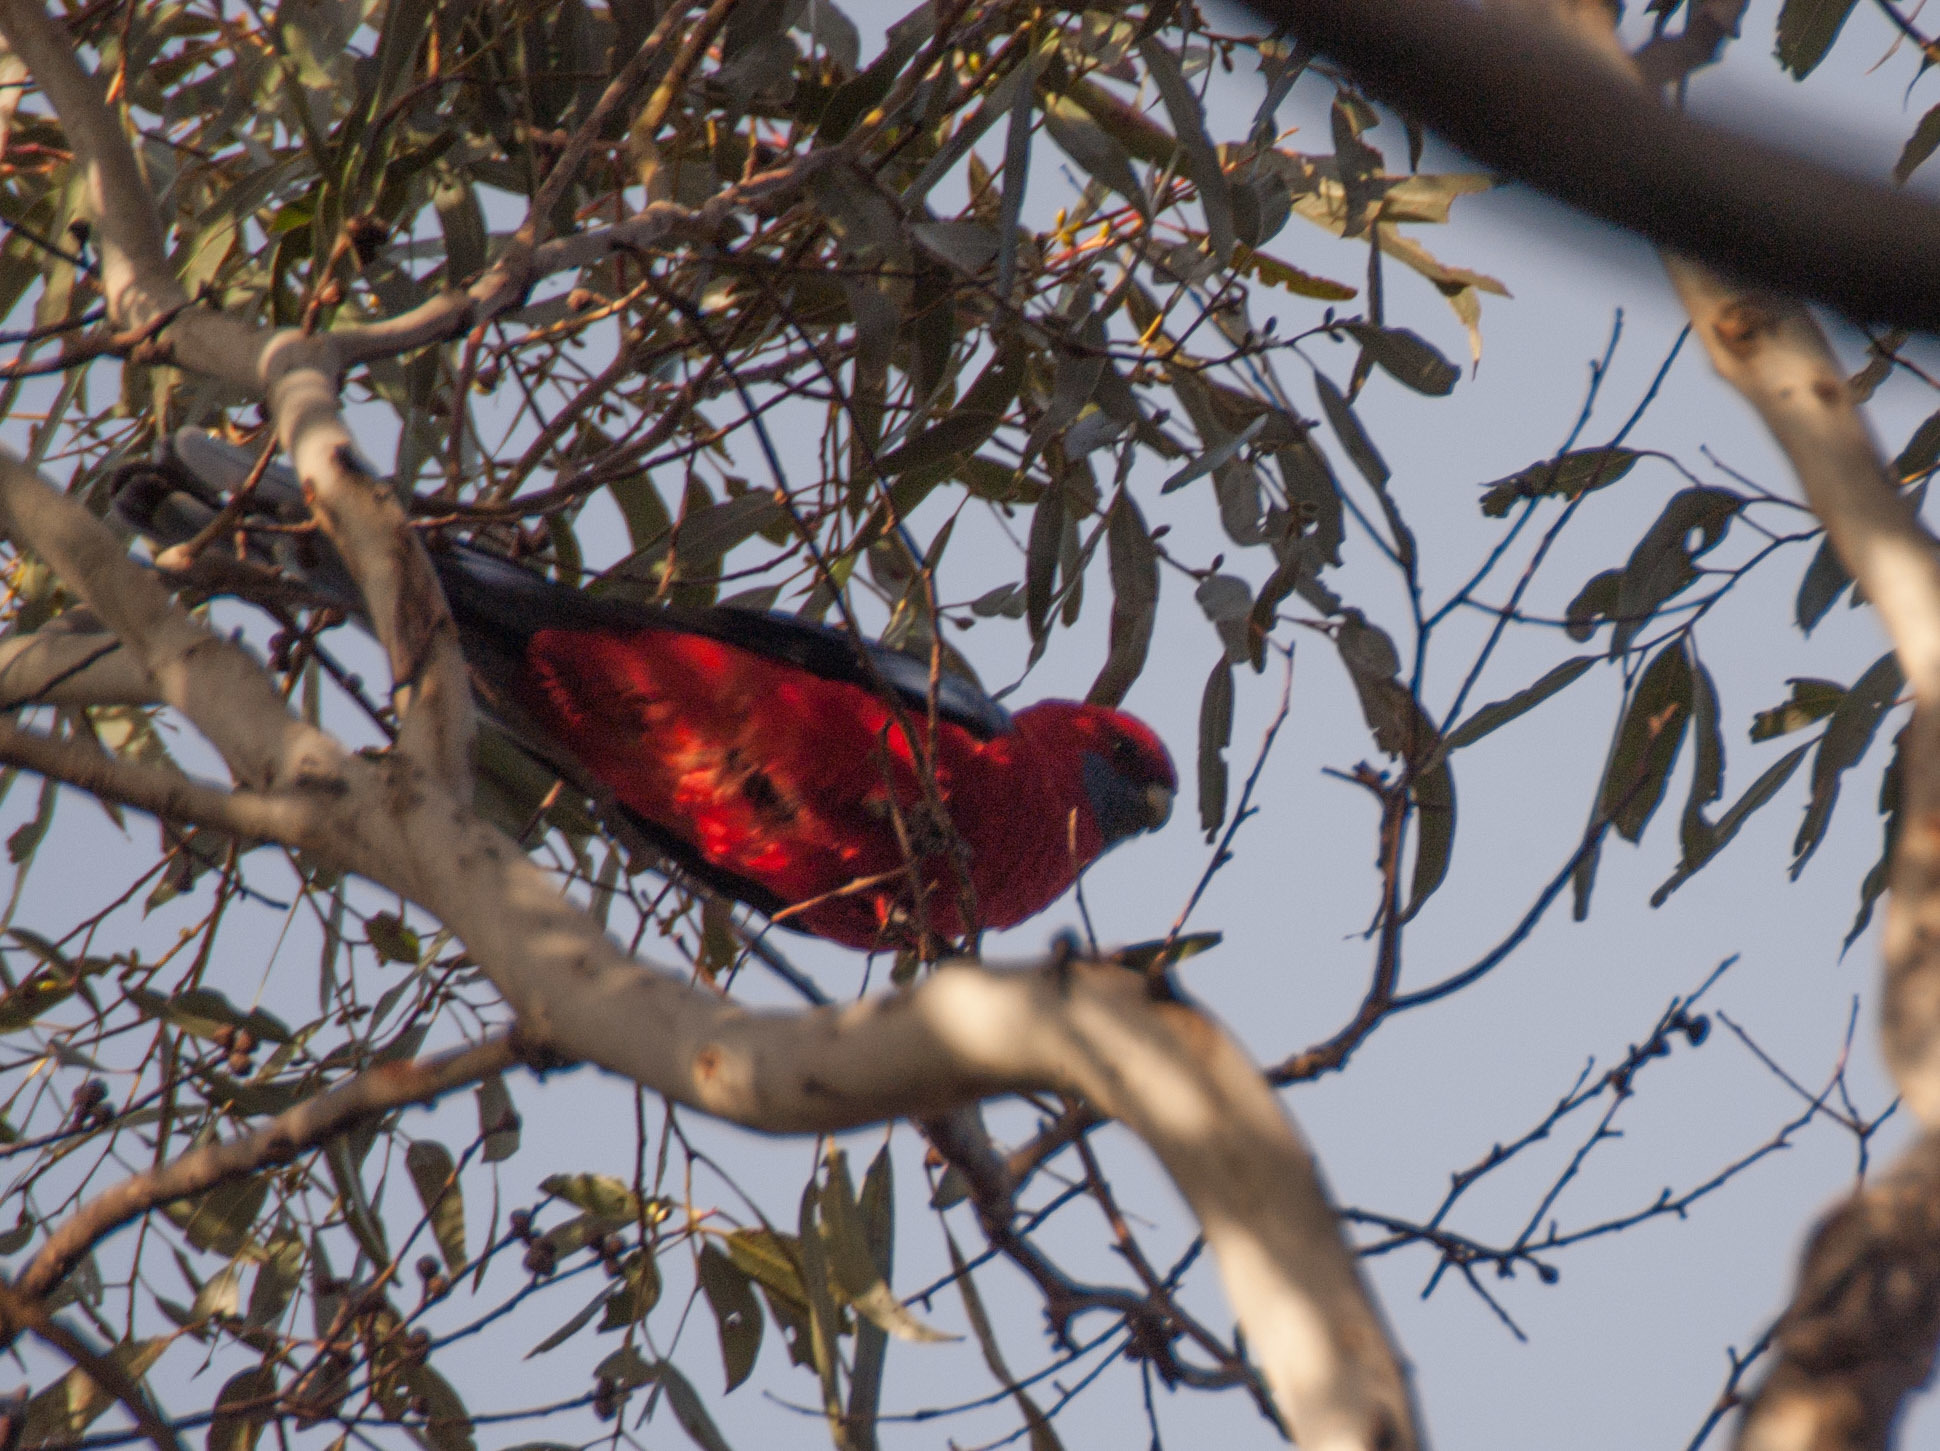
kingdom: Animalia
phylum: Chordata
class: Aves
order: Psittaciformes
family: Psittacidae
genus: Platycercus
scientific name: Platycercus elegans
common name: Crimson rosella
